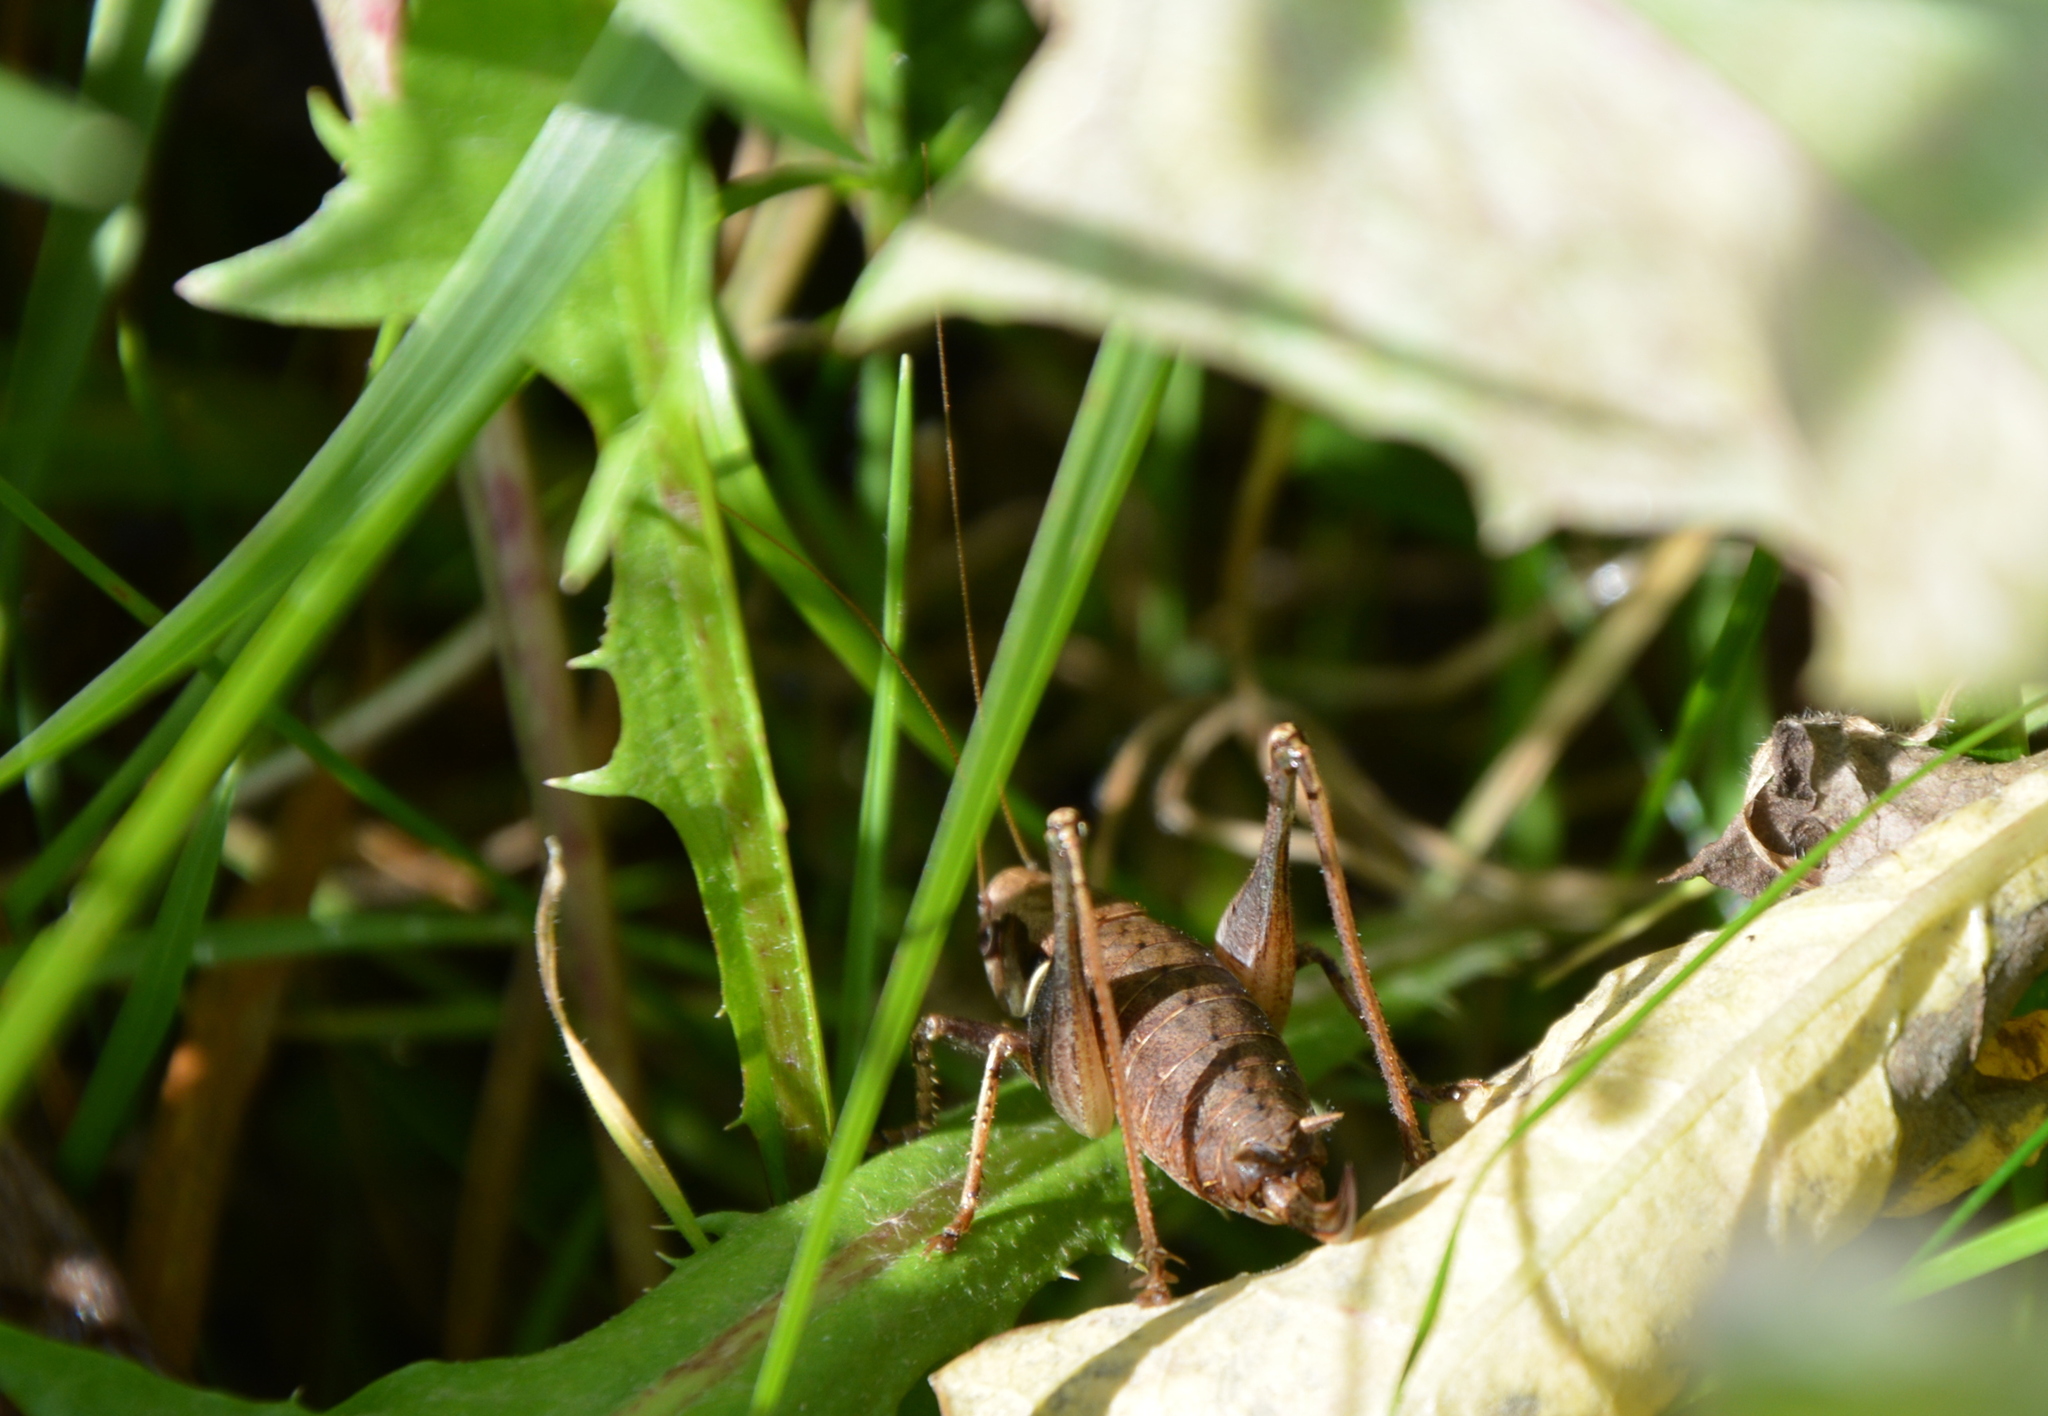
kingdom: Animalia
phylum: Arthropoda
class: Insecta
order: Orthoptera
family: Tettigoniidae
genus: Pholidoptera
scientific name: Pholidoptera griseoaptera
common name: Dark bush-cricket
